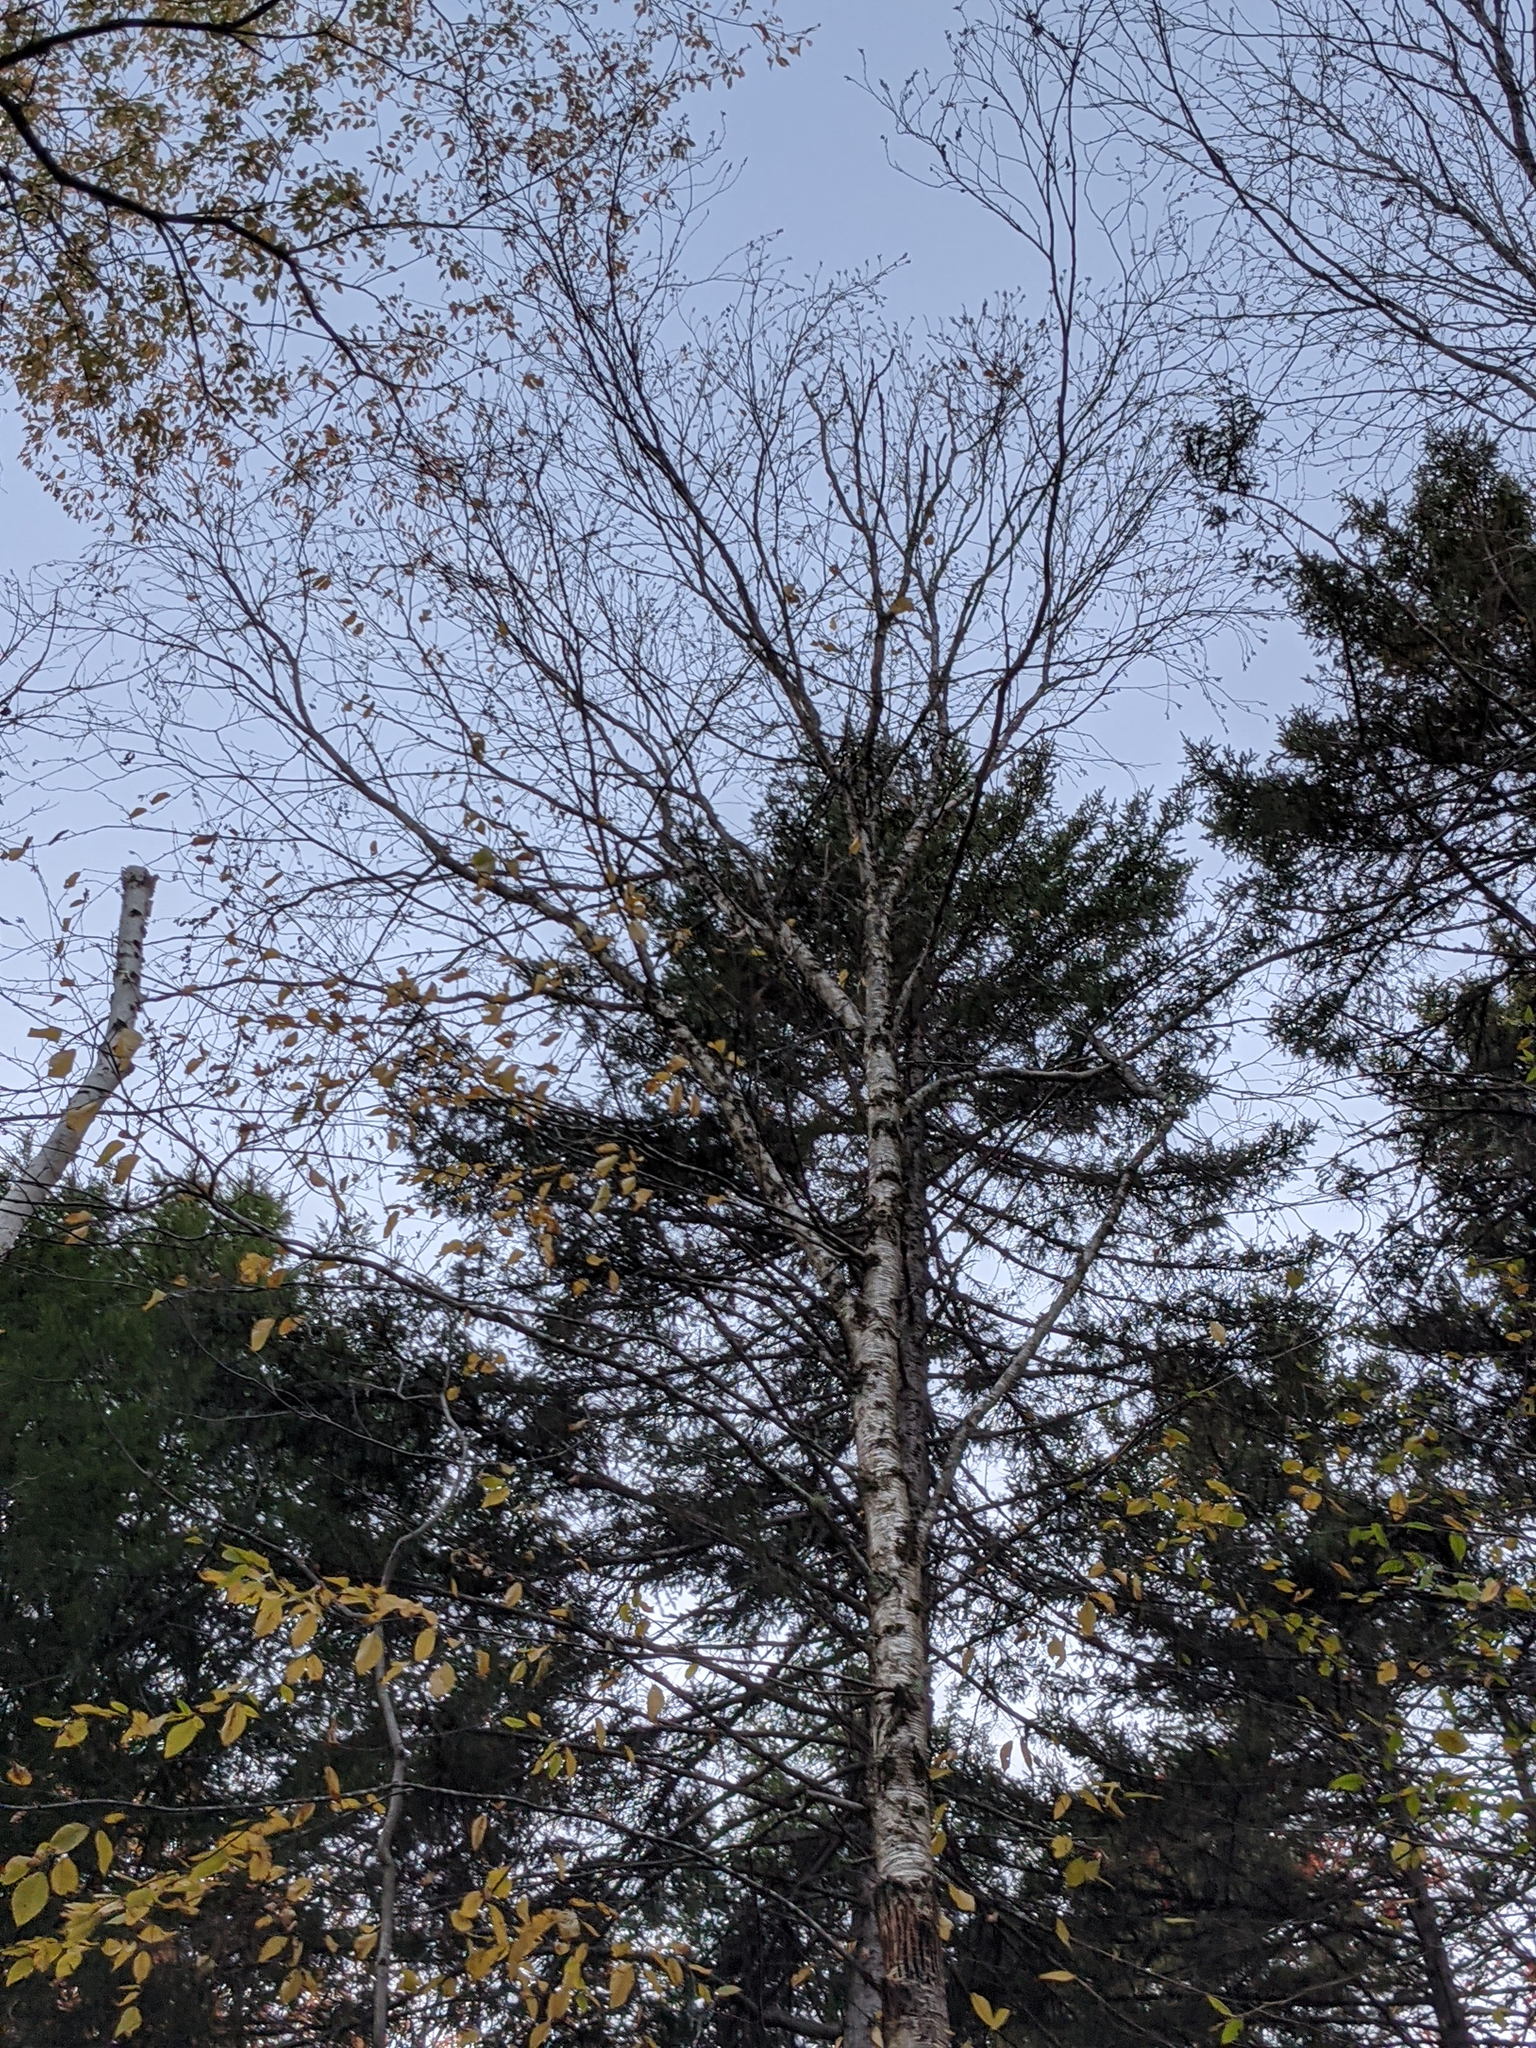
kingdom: Plantae
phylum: Tracheophyta
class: Magnoliopsida
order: Fagales
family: Betulaceae
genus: Betula
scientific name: Betula alleghaniensis
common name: Yellow birch
